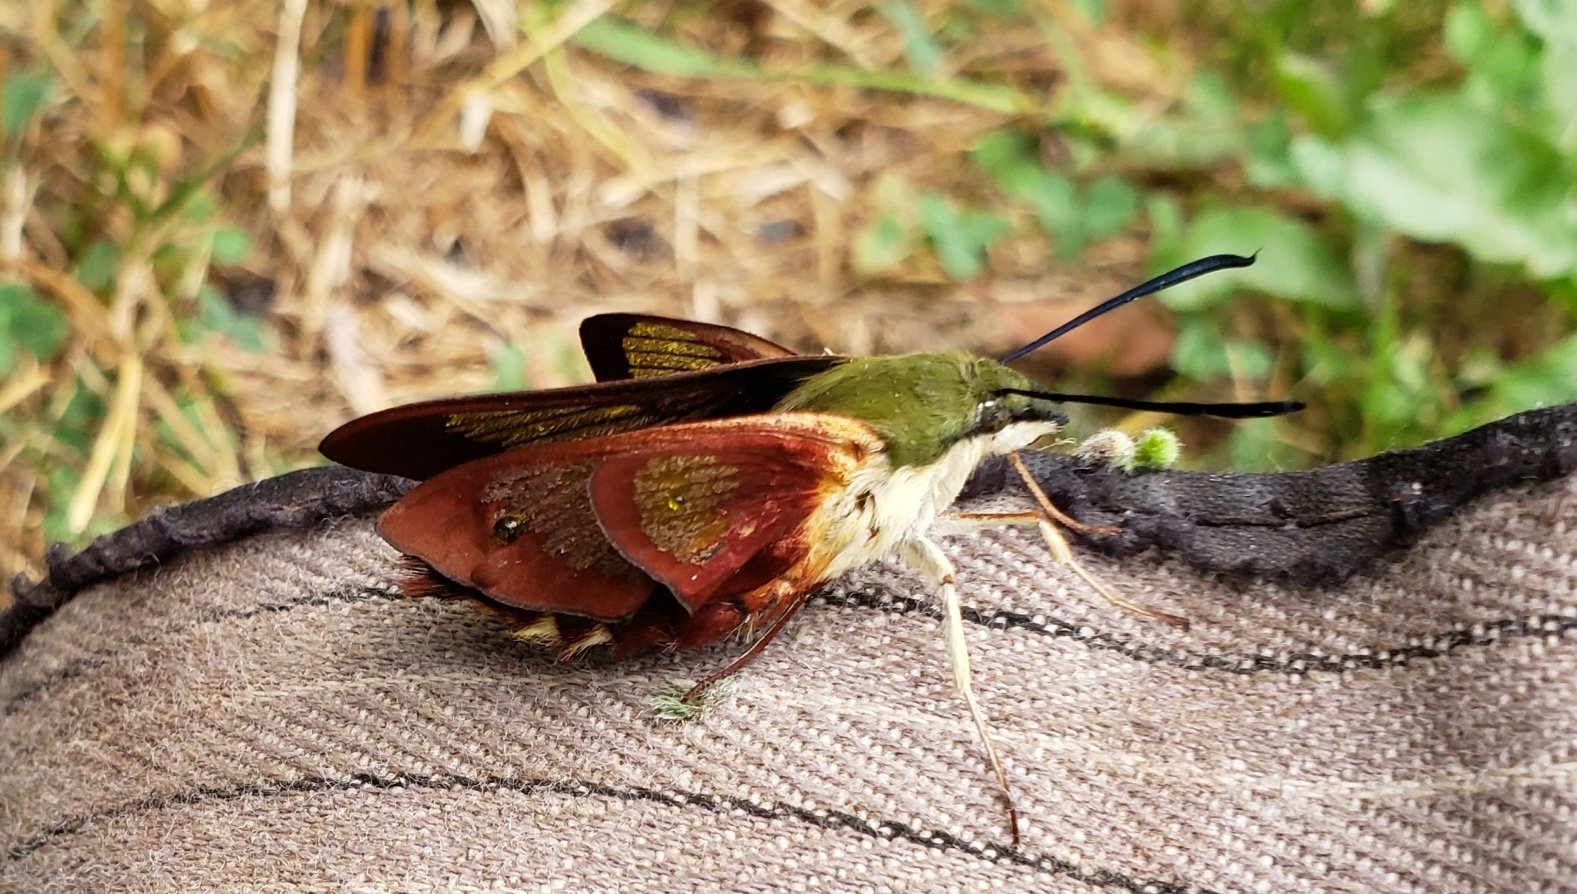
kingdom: Animalia
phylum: Arthropoda
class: Insecta
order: Lepidoptera
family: Sphingidae
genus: Hemaris
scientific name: Hemaris thysbe
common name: Common clear-wing
